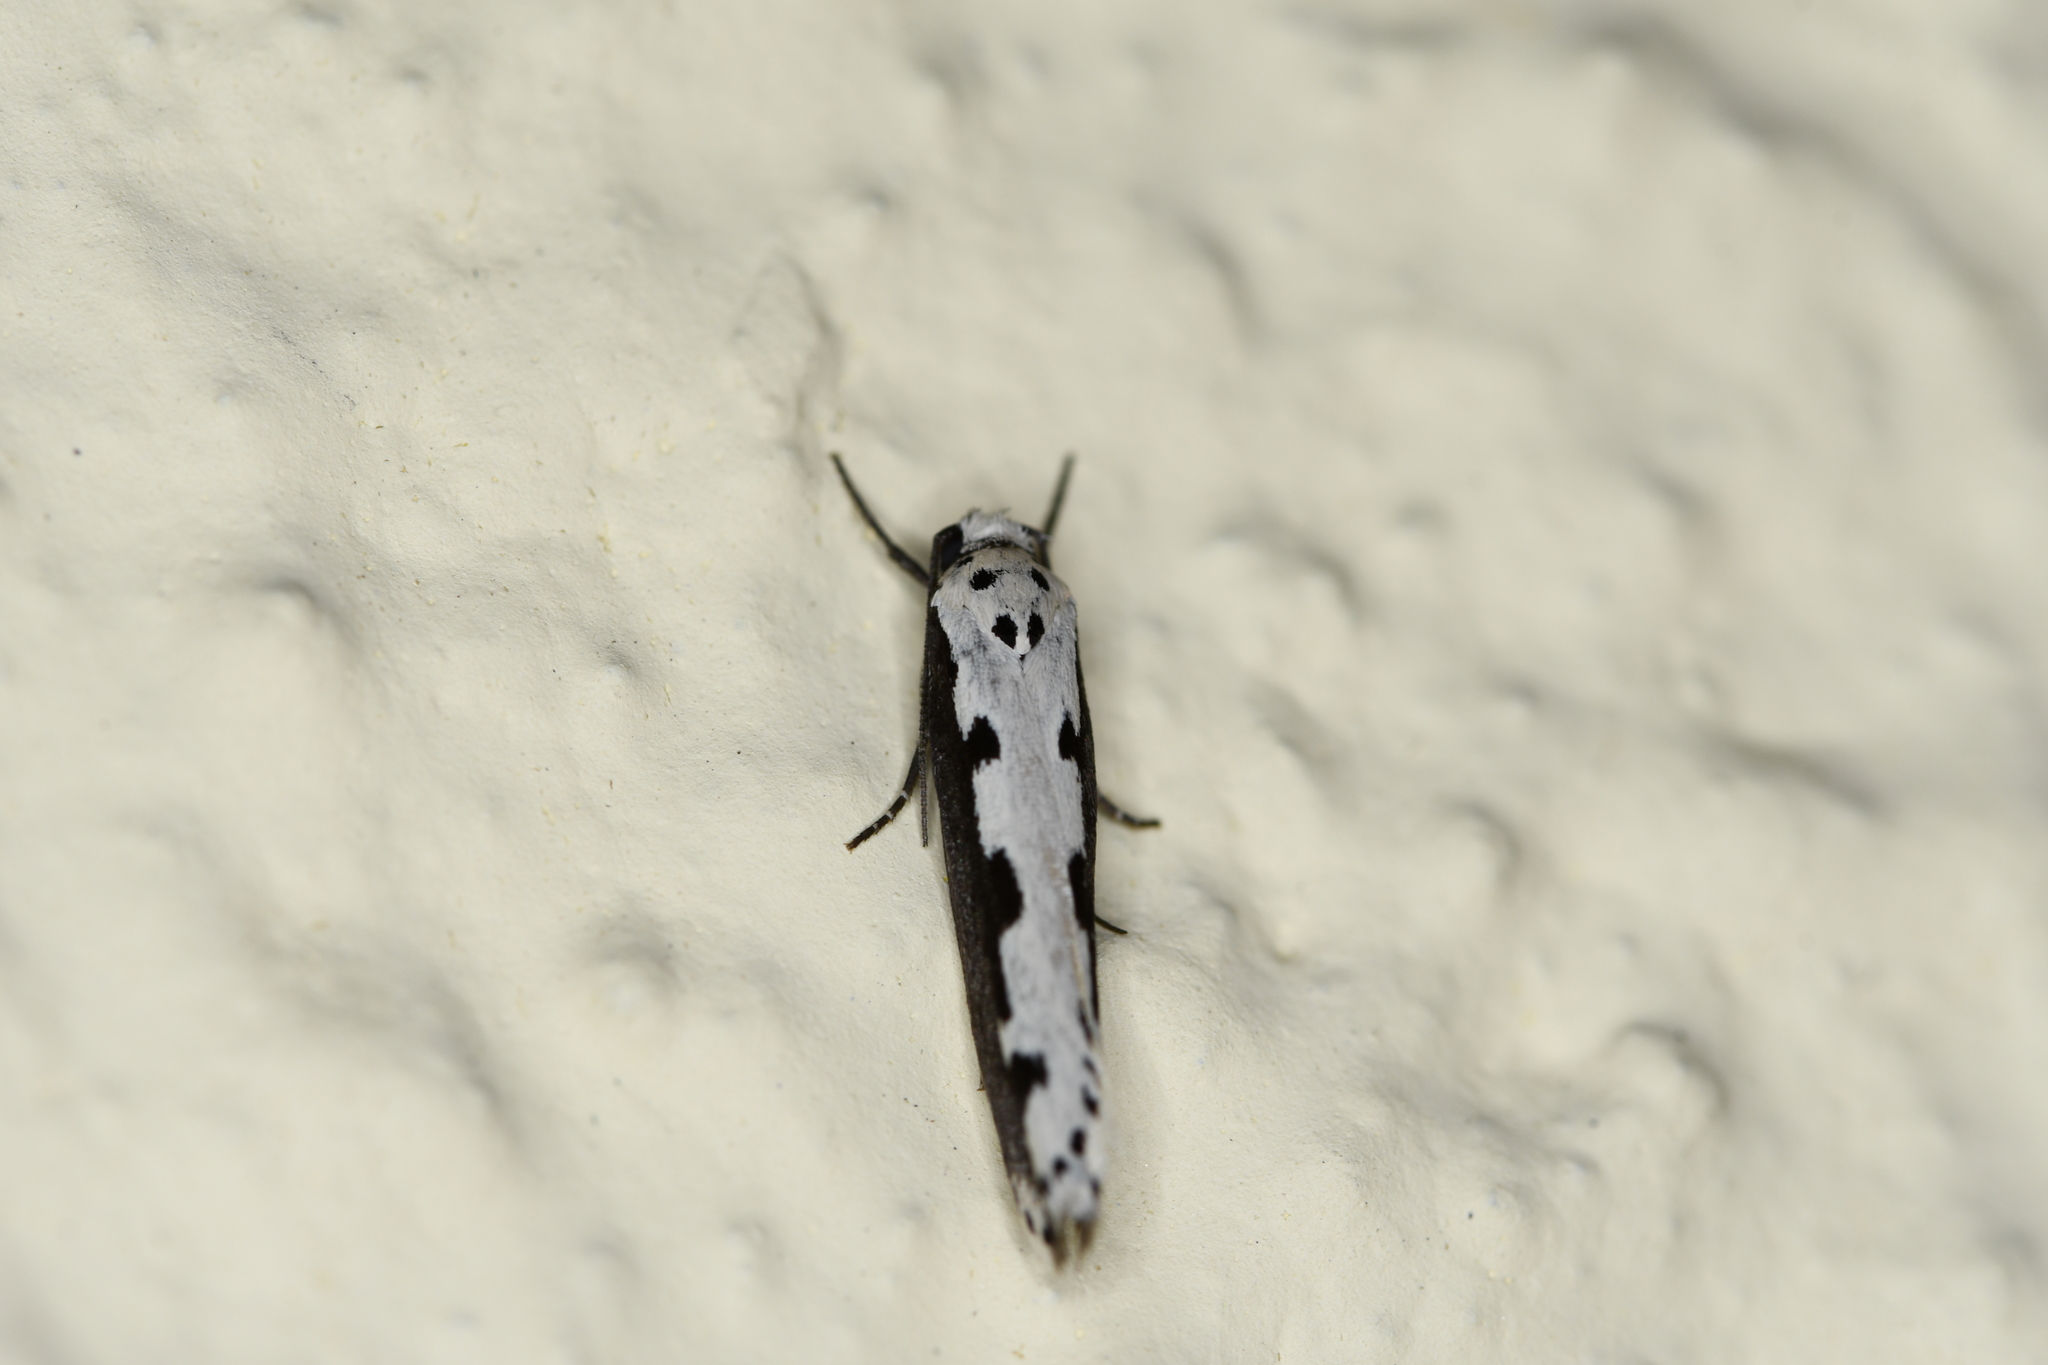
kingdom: Animalia
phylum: Arthropoda
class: Insecta
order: Lepidoptera
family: Ethmiidae
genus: Ethmia
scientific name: Ethmia bipunctella
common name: Bordered ermel
